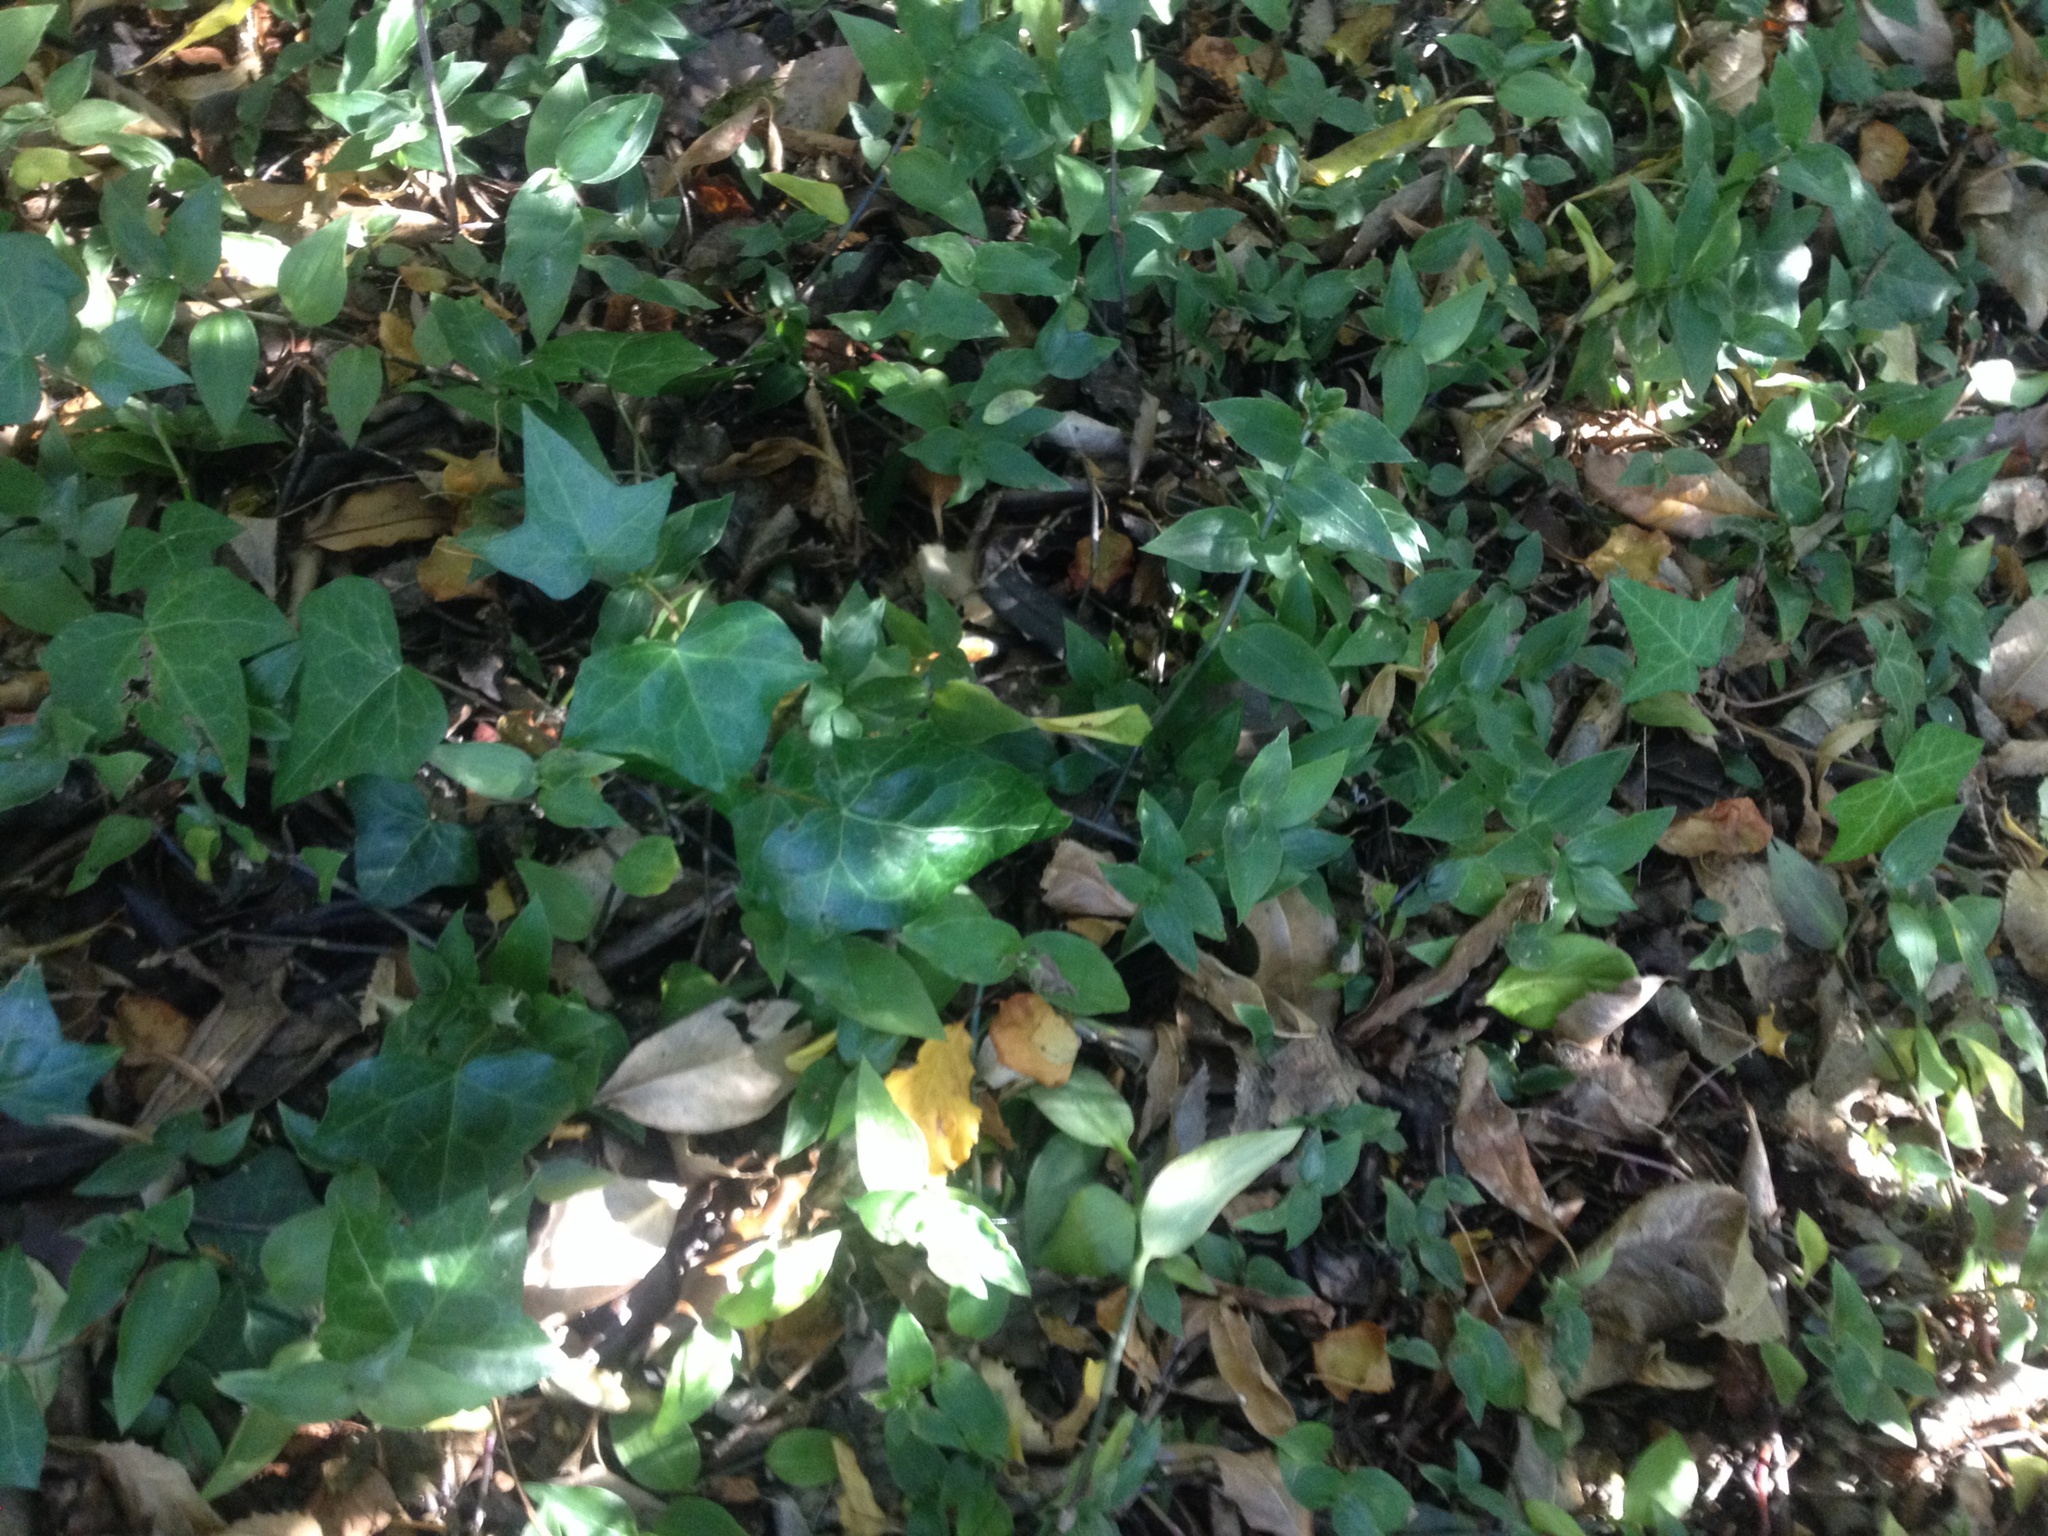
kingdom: Plantae
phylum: Tracheophyta
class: Magnoliopsida
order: Apiales
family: Araliaceae
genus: Hedera
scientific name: Hedera helix
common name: Ivy
